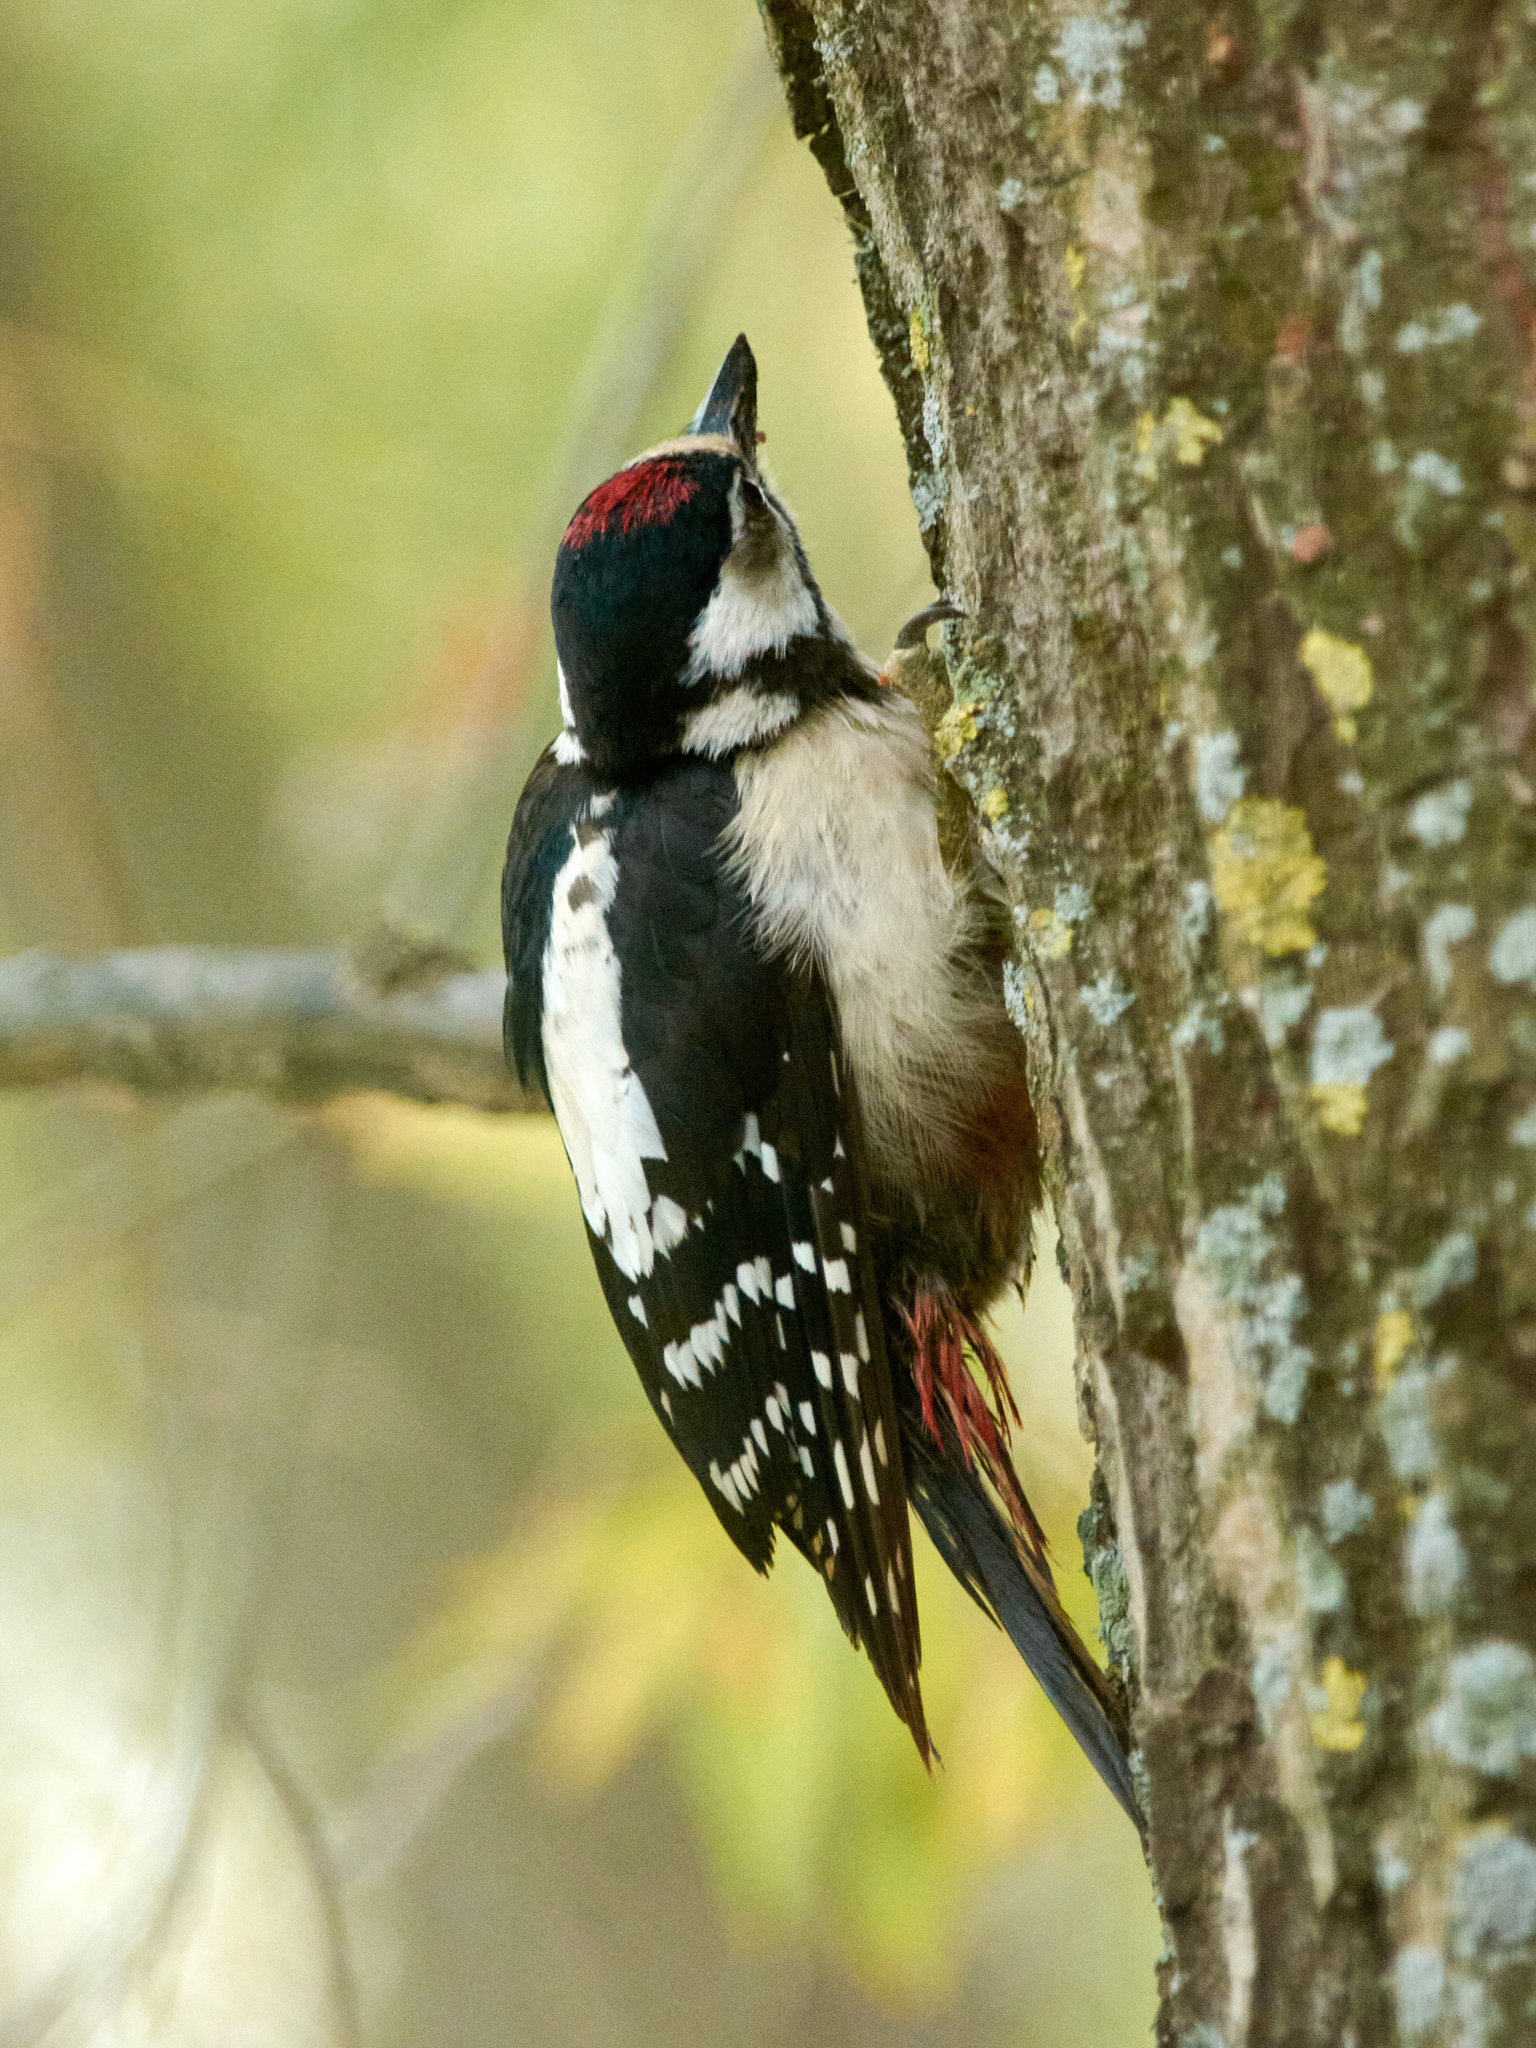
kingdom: Animalia
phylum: Chordata
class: Aves
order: Piciformes
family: Picidae
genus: Dendrocopos
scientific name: Dendrocopos major
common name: Great spotted woodpecker
